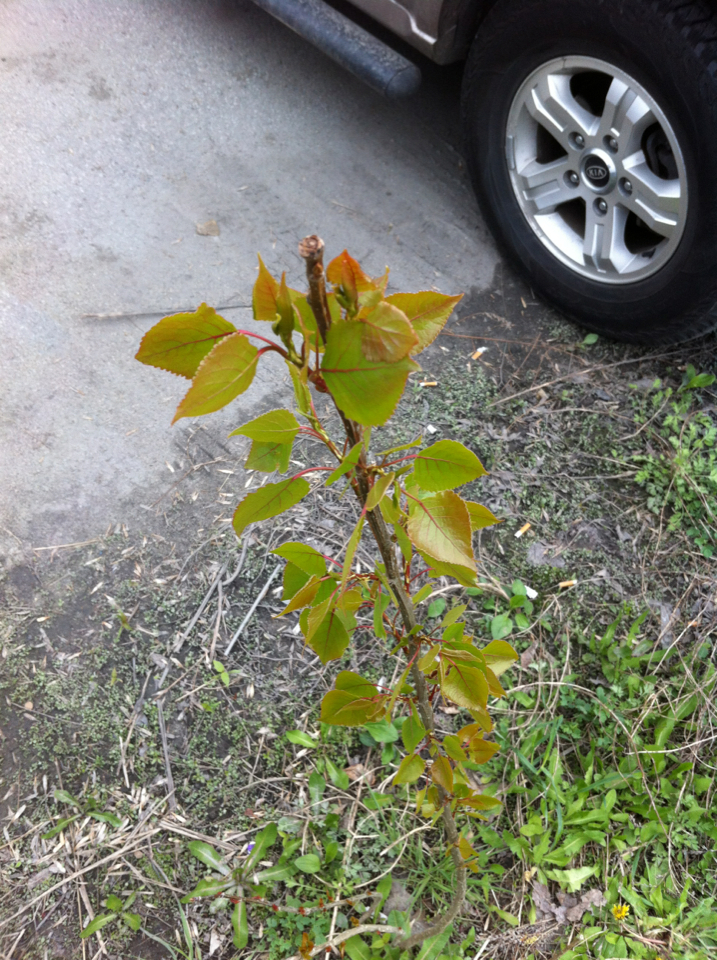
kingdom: Plantae
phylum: Tracheophyta
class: Magnoliopsida
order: Malpighiales
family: Salicaceae
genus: Populus
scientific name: Populus deltoides
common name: Eastern cottonwood
